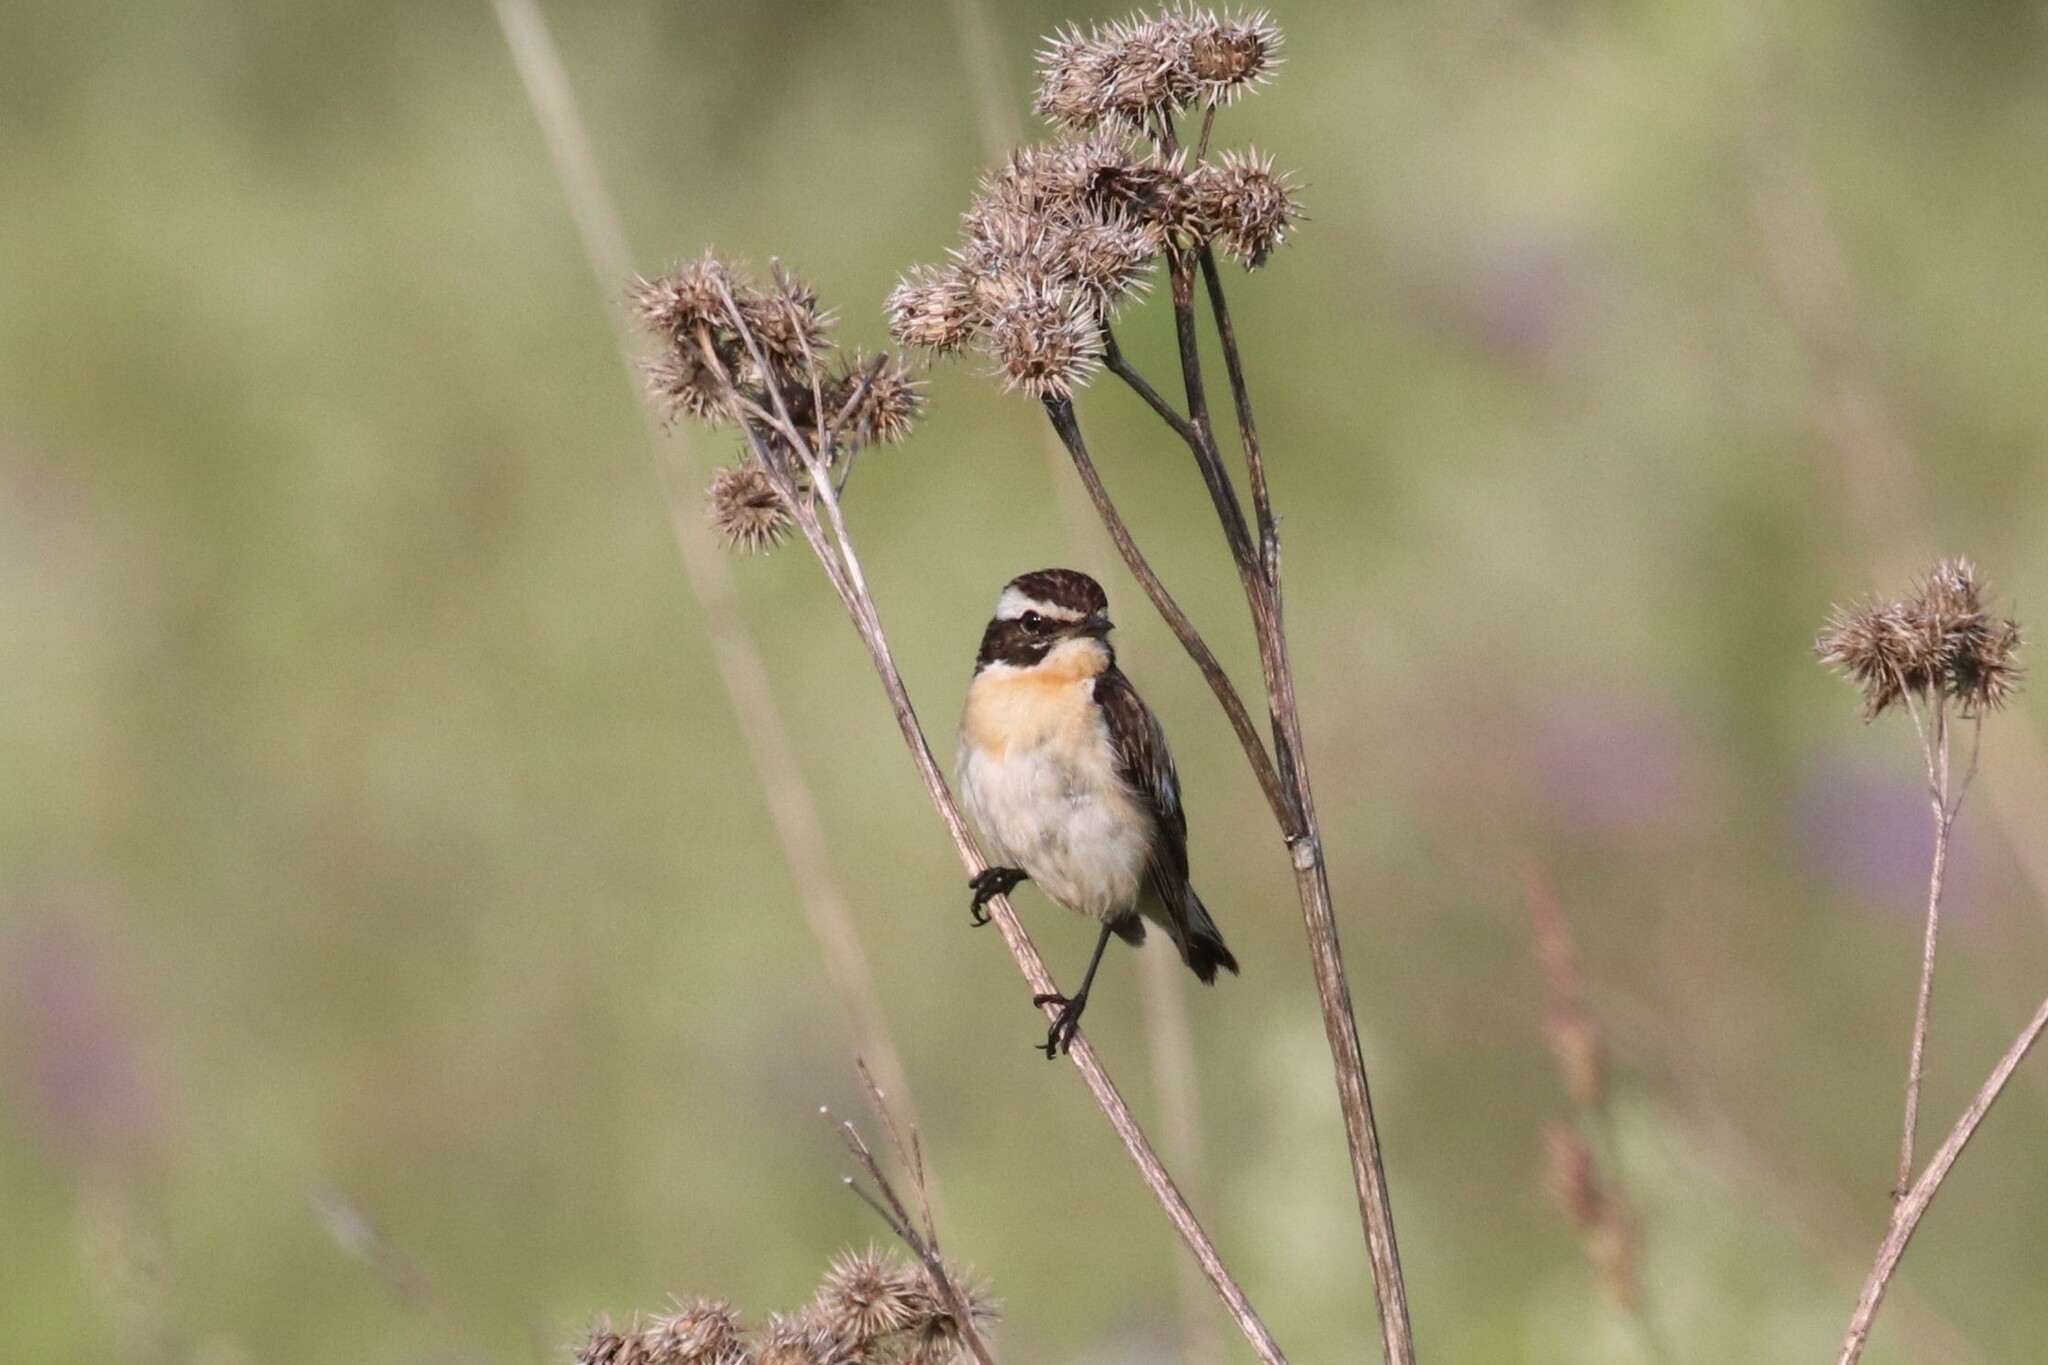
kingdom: Animalia
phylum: Chordata
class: Aves
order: Passeriformes
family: Muscicapidae
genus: Saxicola
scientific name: Saxicola rubetra
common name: Whinchat
